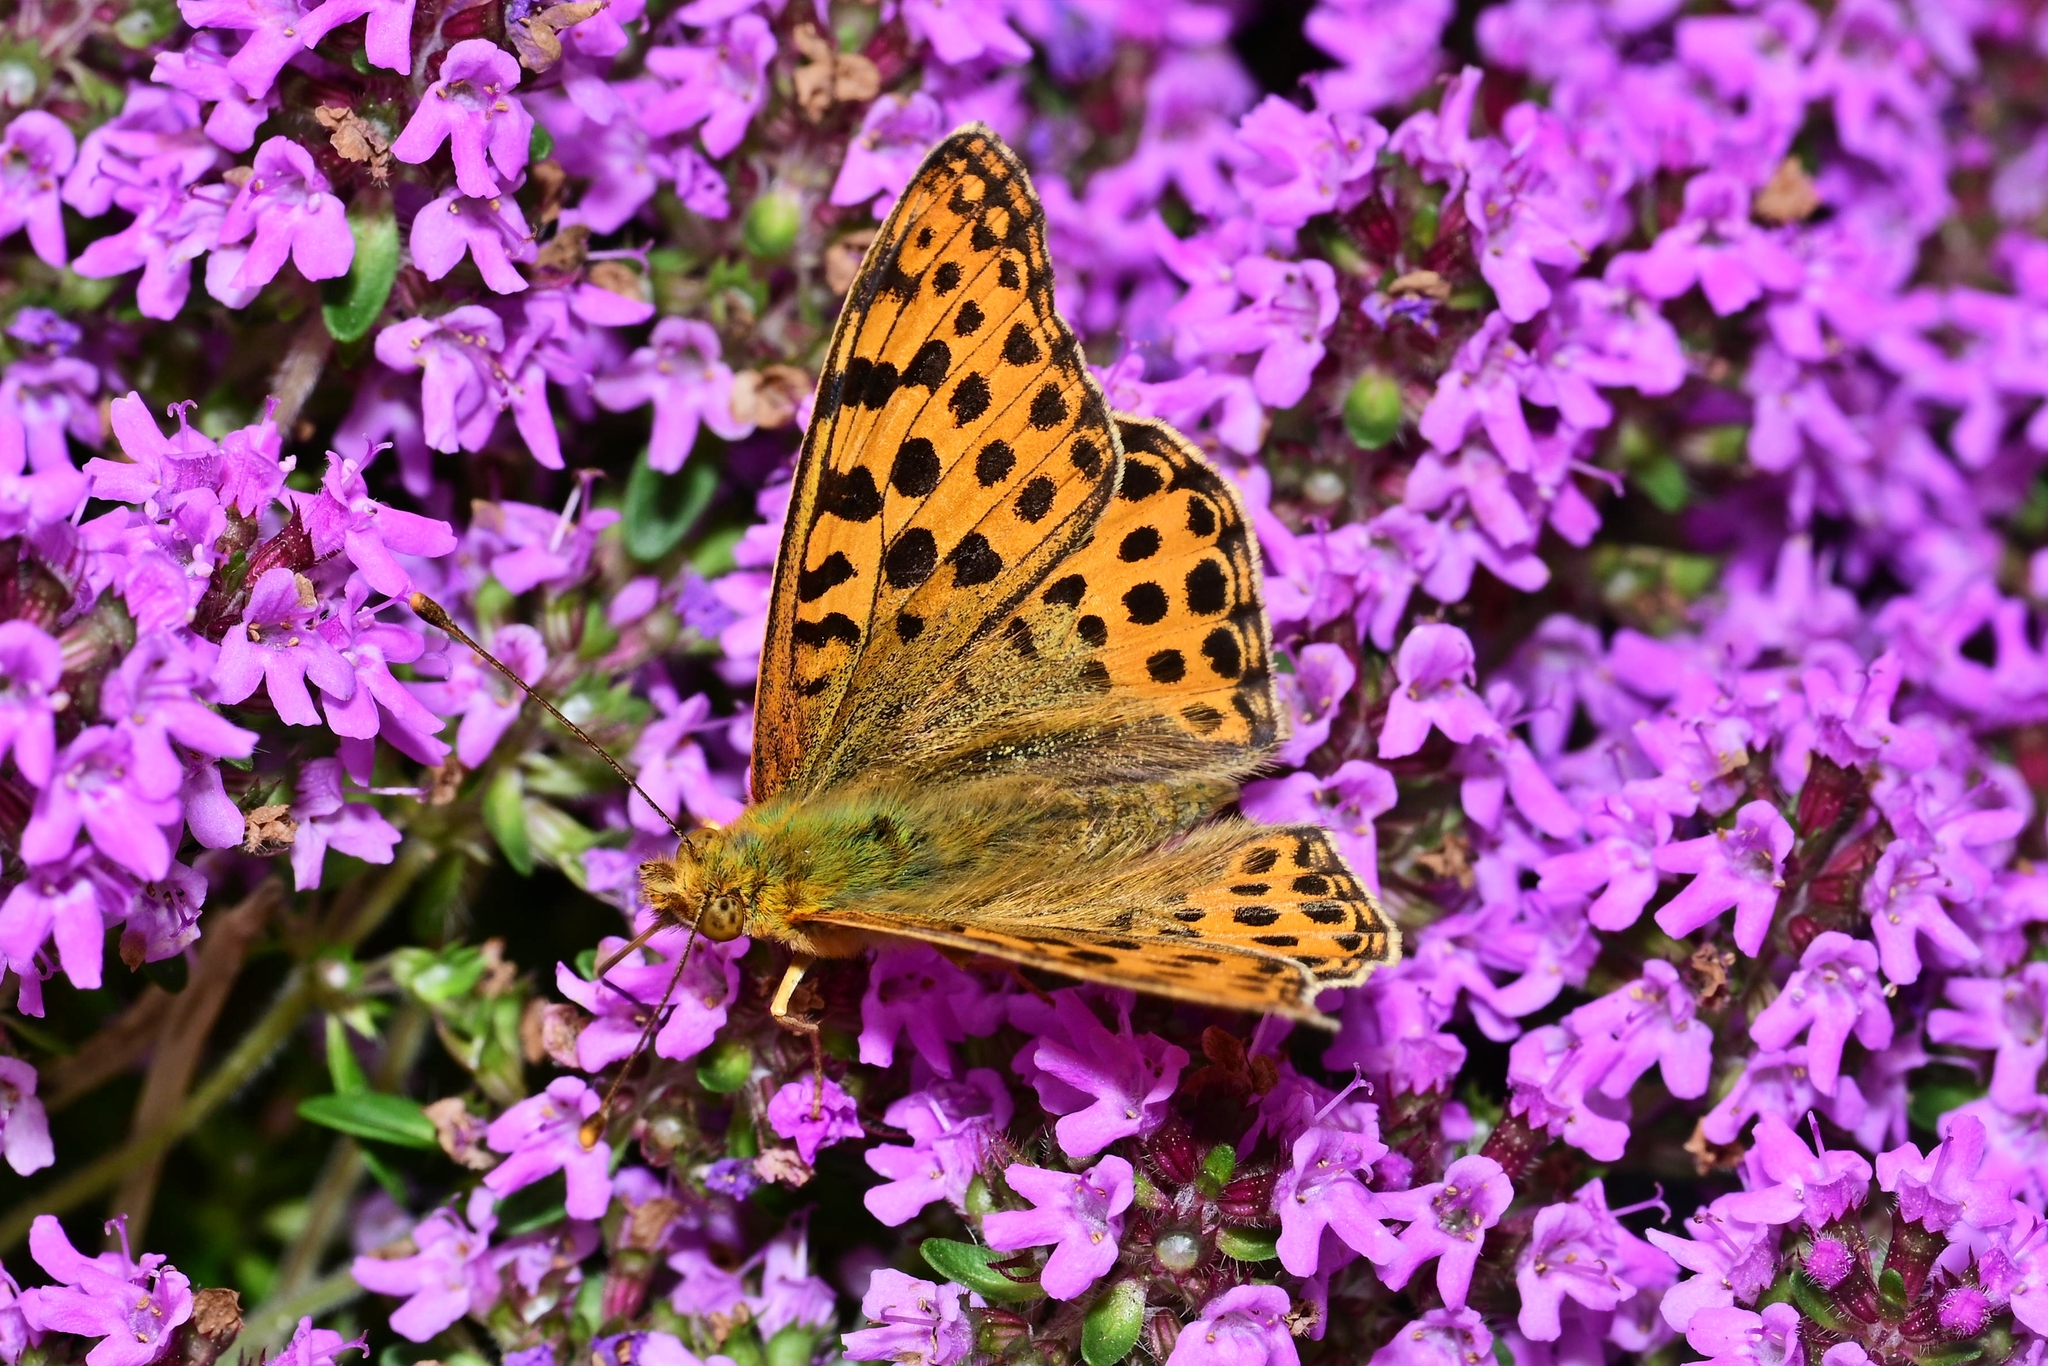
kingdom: Animalia
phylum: Arthropoda
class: Insecta
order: Lepidoptera
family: Nymphalidae
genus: Issoria
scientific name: Issoria lathonia
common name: Queen of spain fritillary
